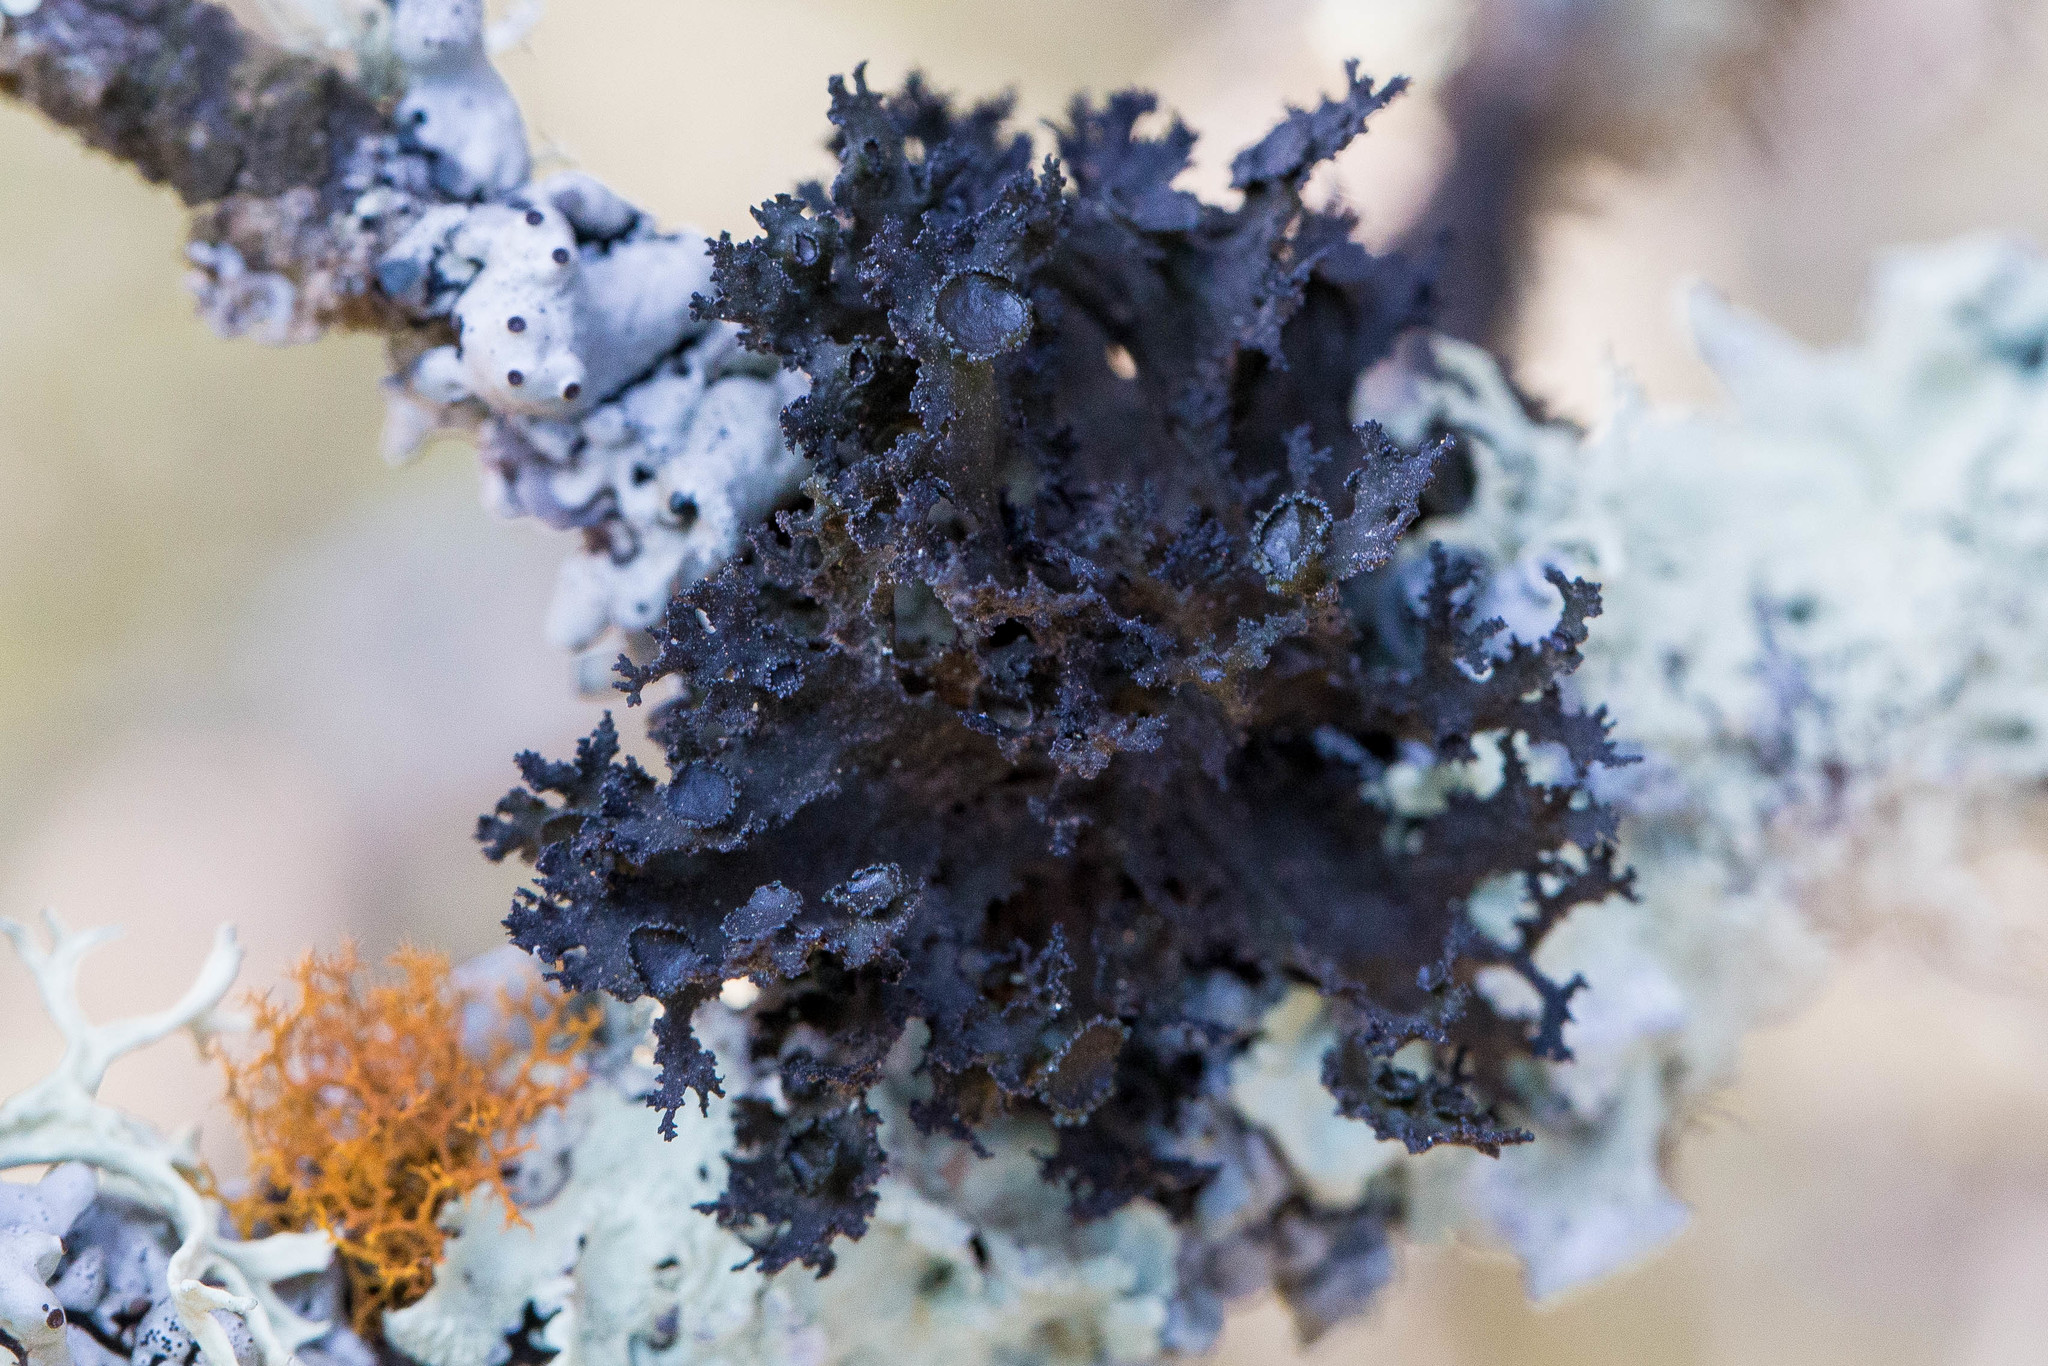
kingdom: Fungi
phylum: Ascomycota
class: Lecanoromycetes
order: Lecanorales
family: Parmeliaceae
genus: Nephromopsis
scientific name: Nephromopsis merrillii
